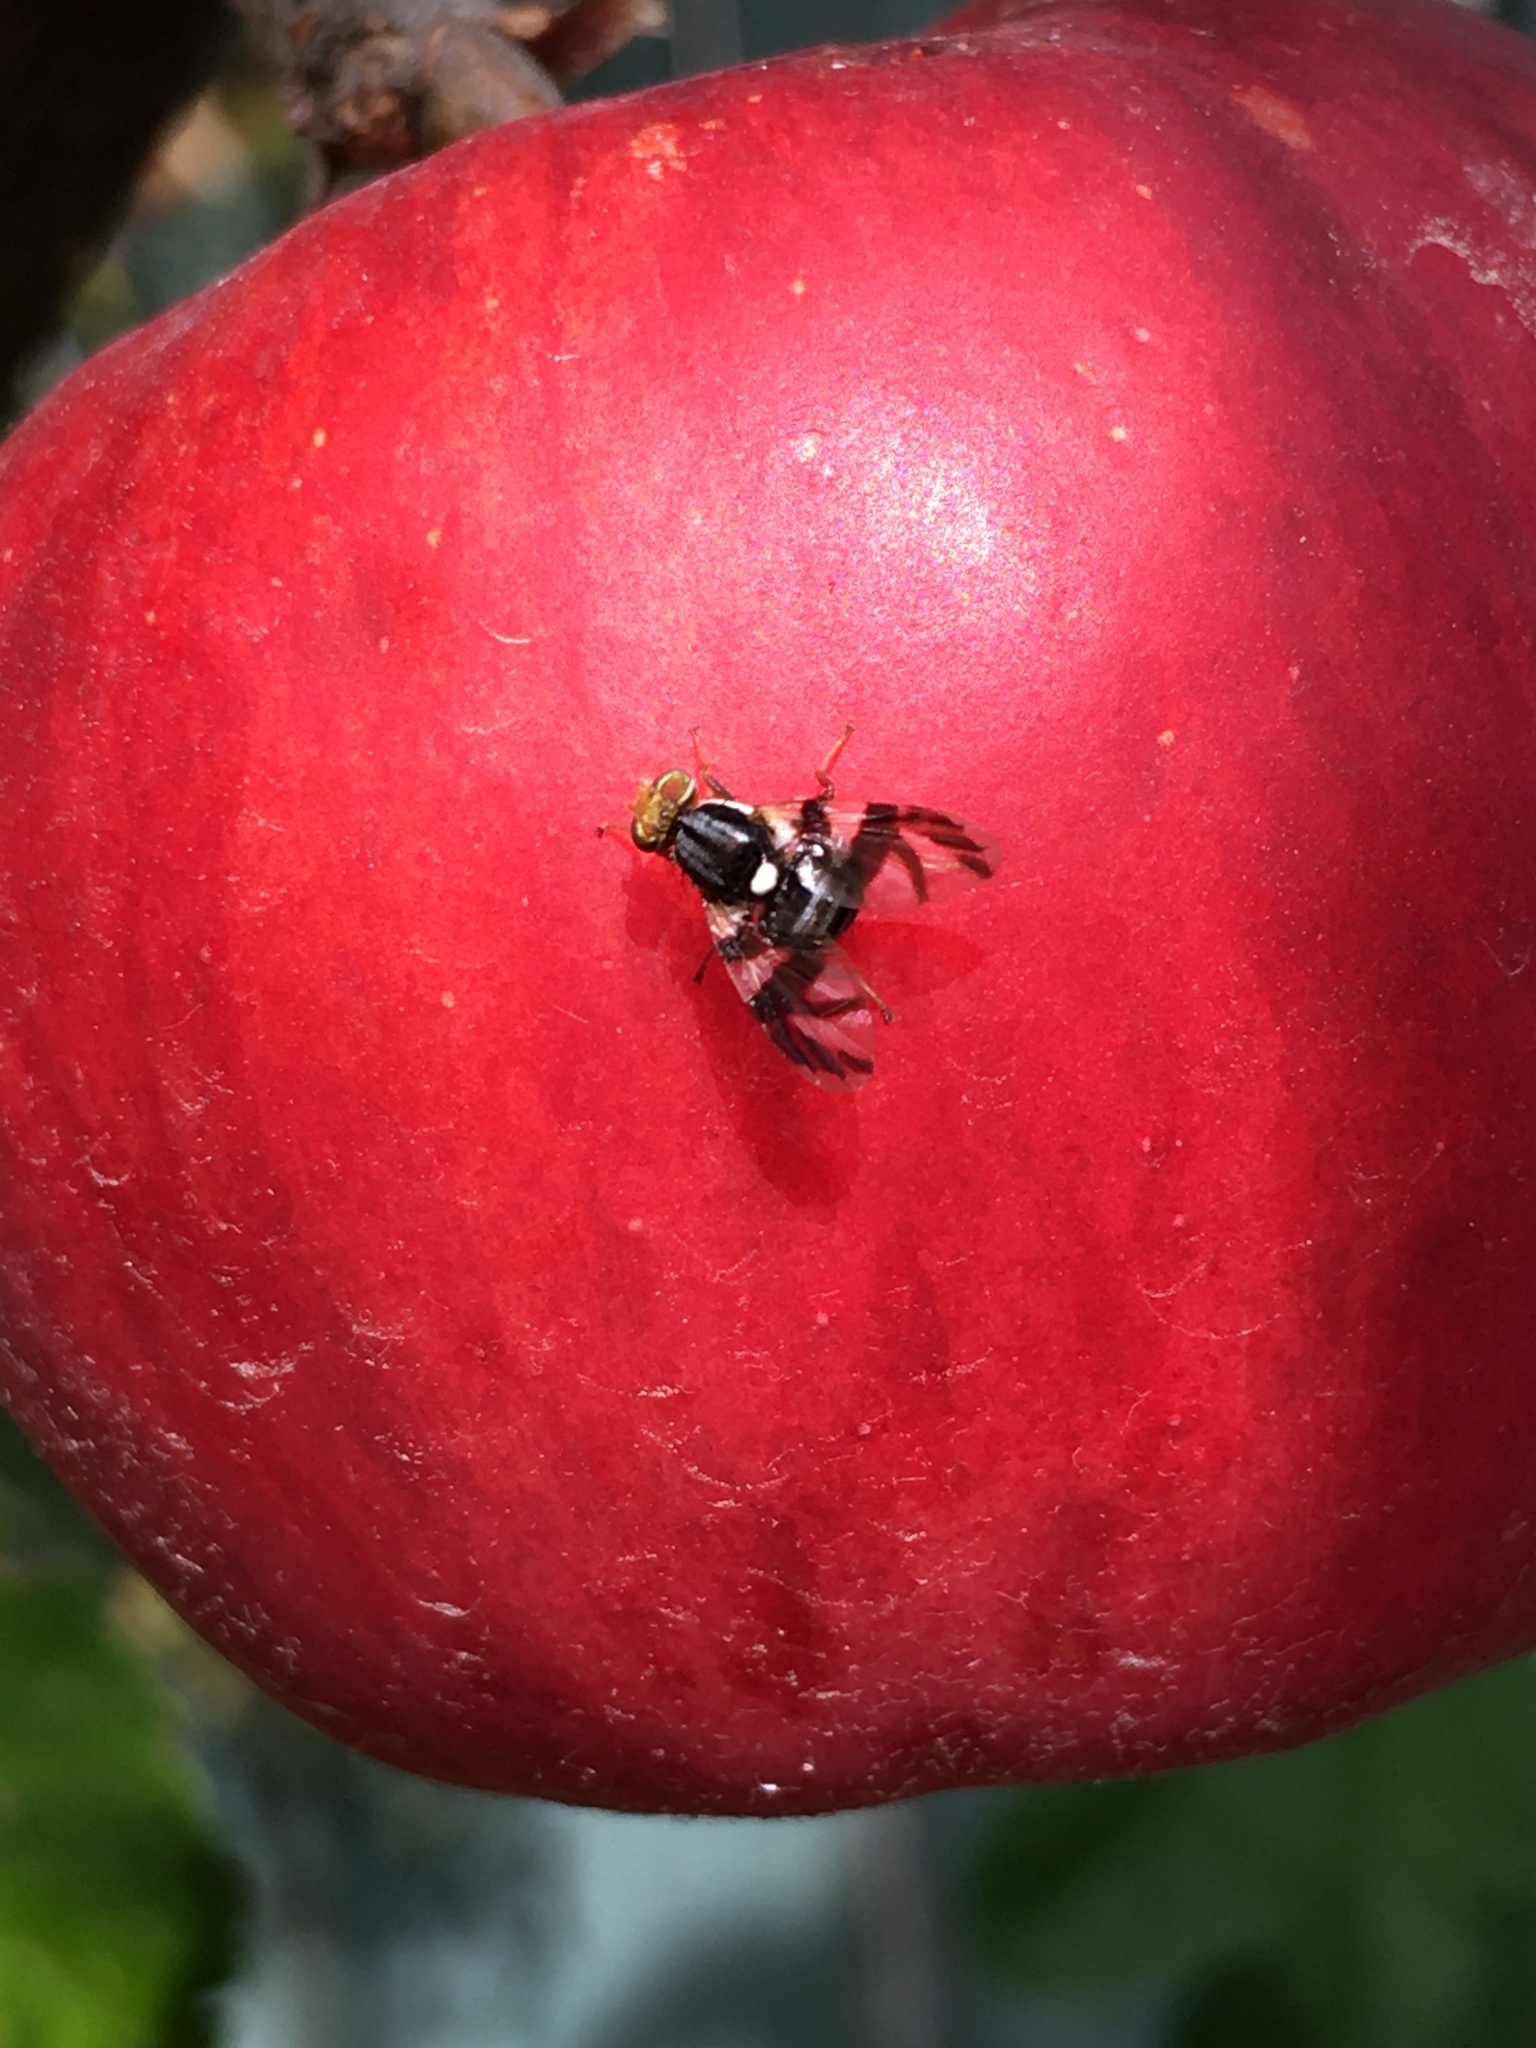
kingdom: Animalia
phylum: Arthropoda
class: Insecta
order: Diptera
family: Tephritidae
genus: Rhagoletis
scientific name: Rhagoletis pomonella
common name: Apple maggot
